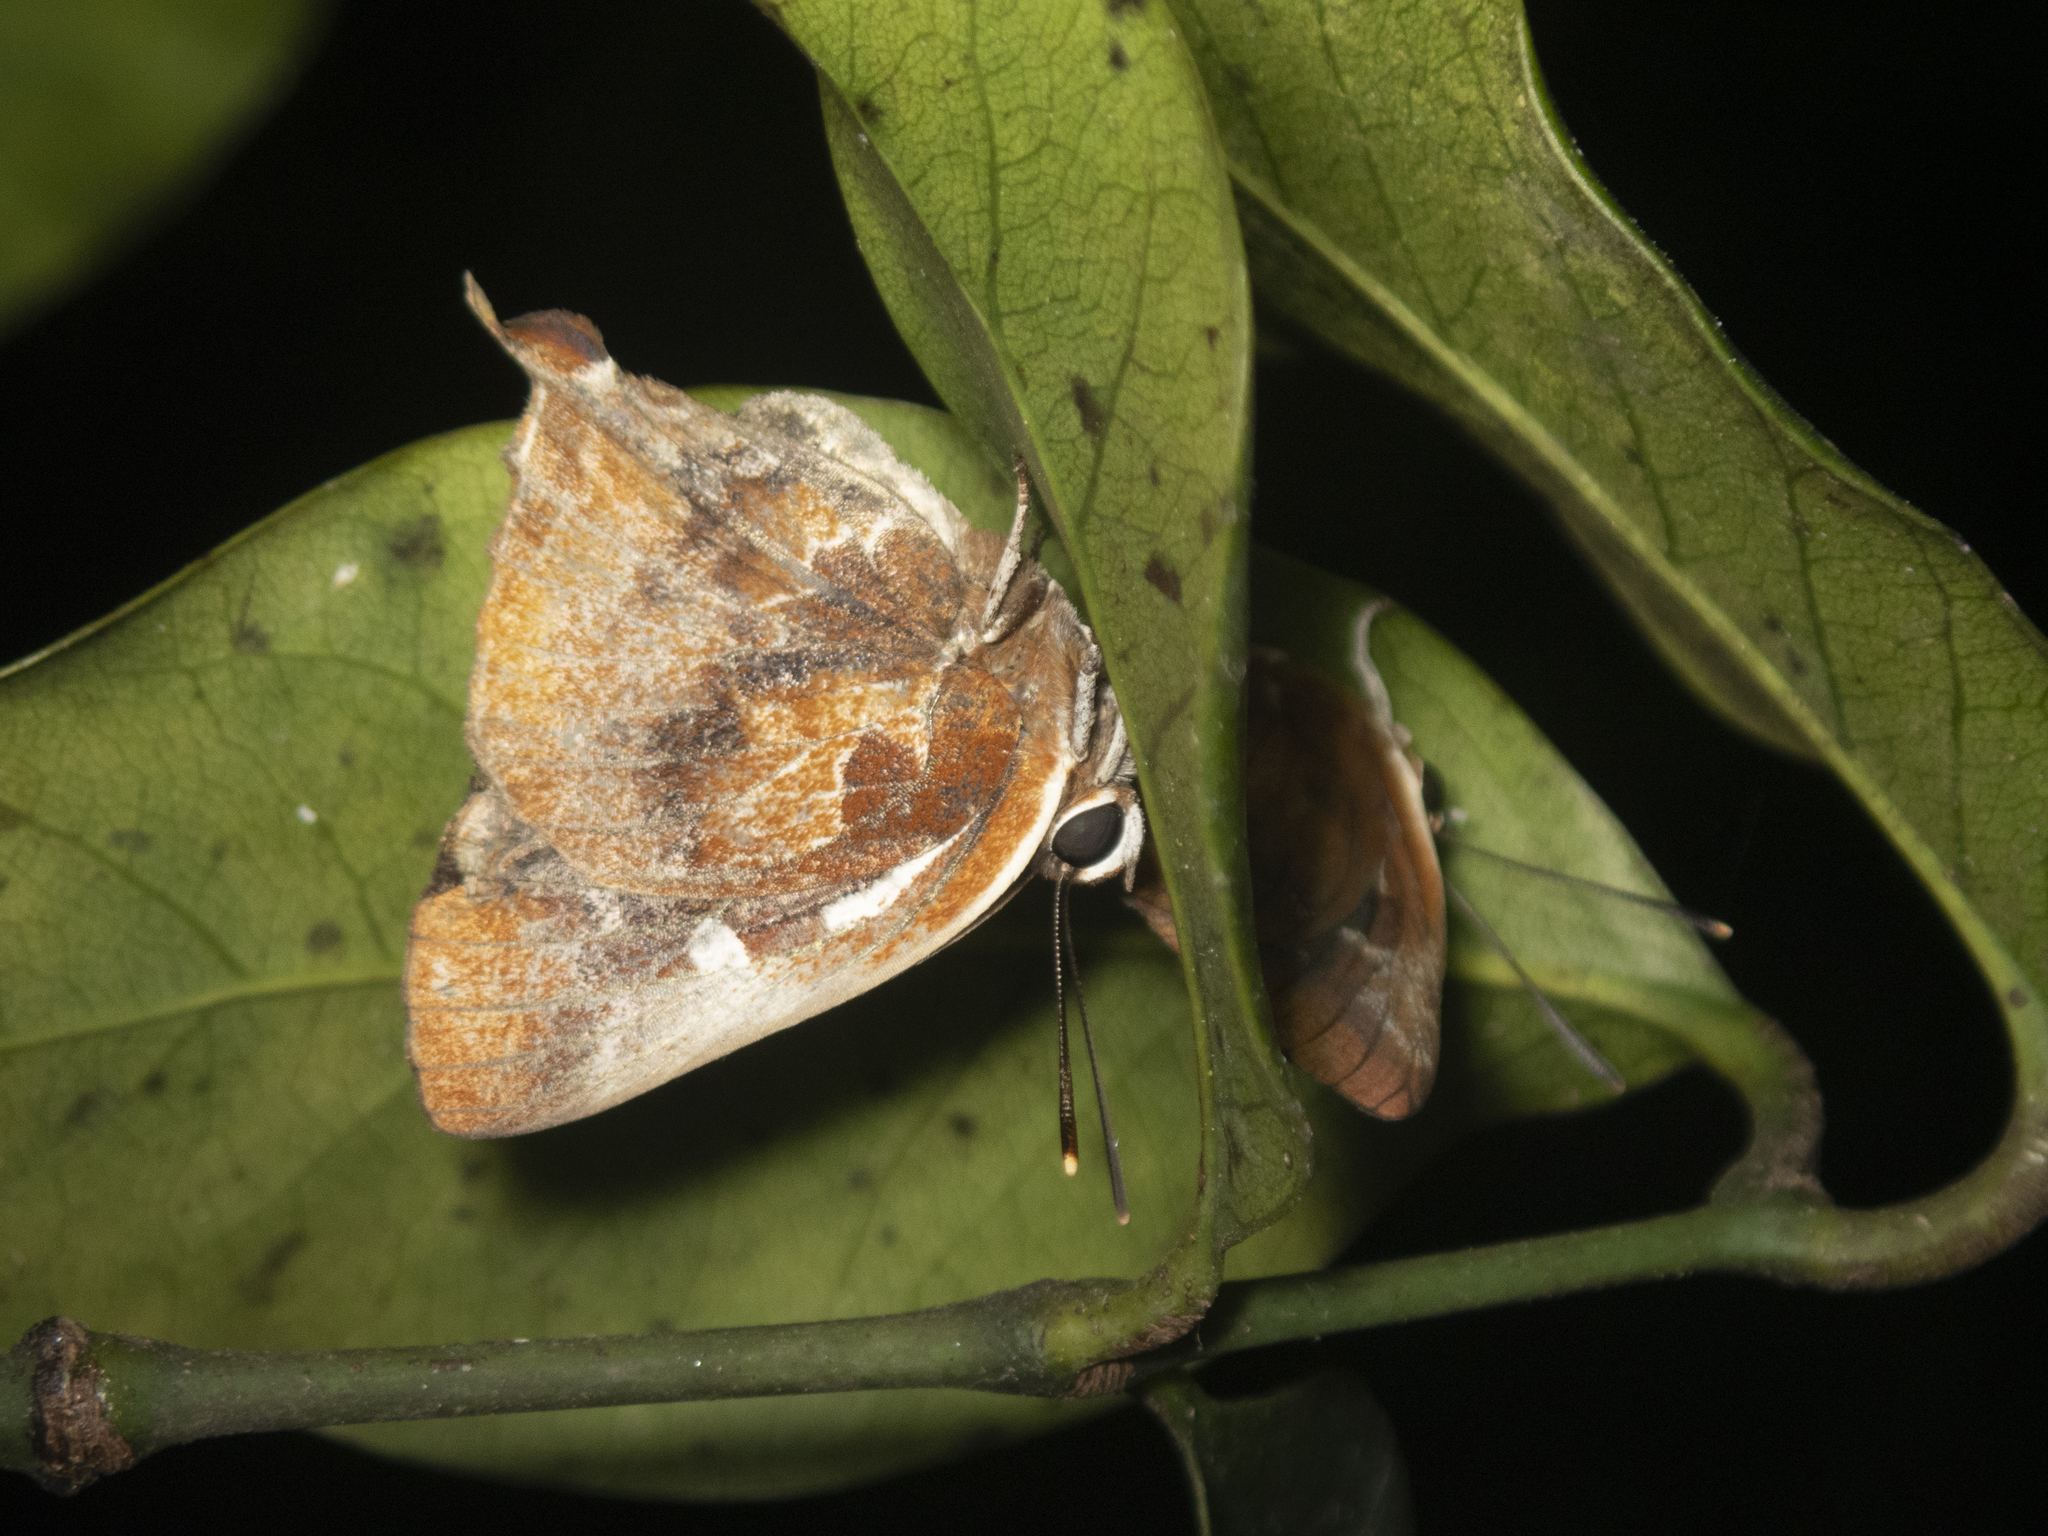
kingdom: Animalia
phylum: Arthropoda
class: Insecta
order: Lepidoptera
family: Lycaenidae
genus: Iraota
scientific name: Iraota timoleon
